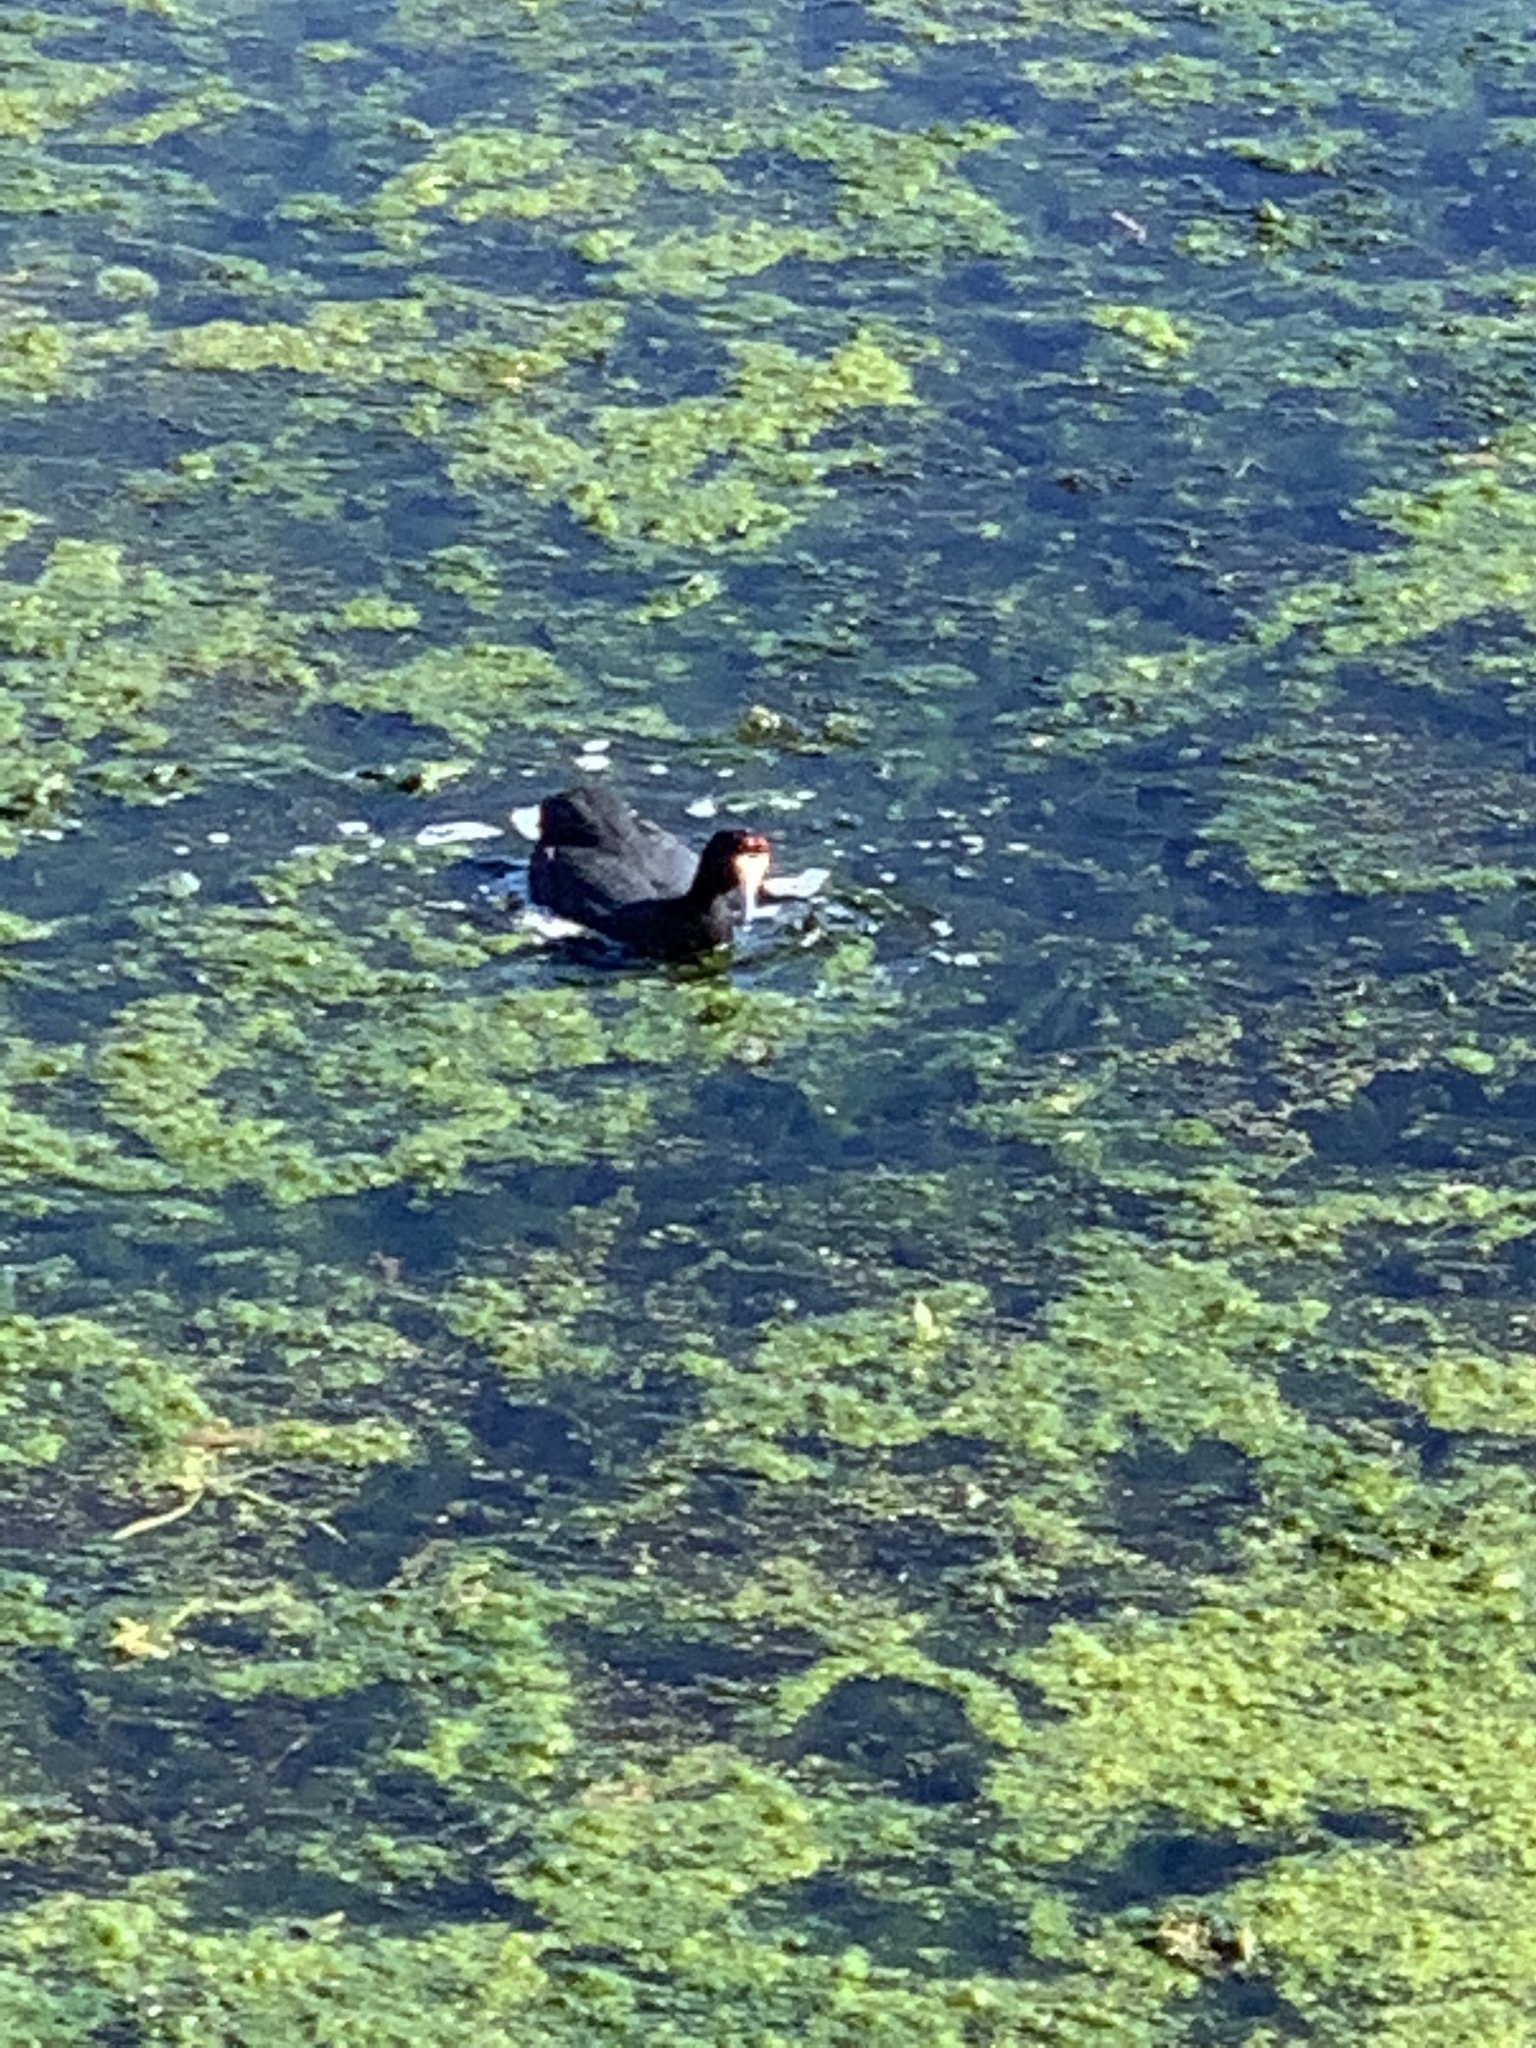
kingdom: Animalia
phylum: Chordata
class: Aves
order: Gruiformes
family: Rallidae
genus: Fulica
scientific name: Fulica cristata
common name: Red-knobbed coot
